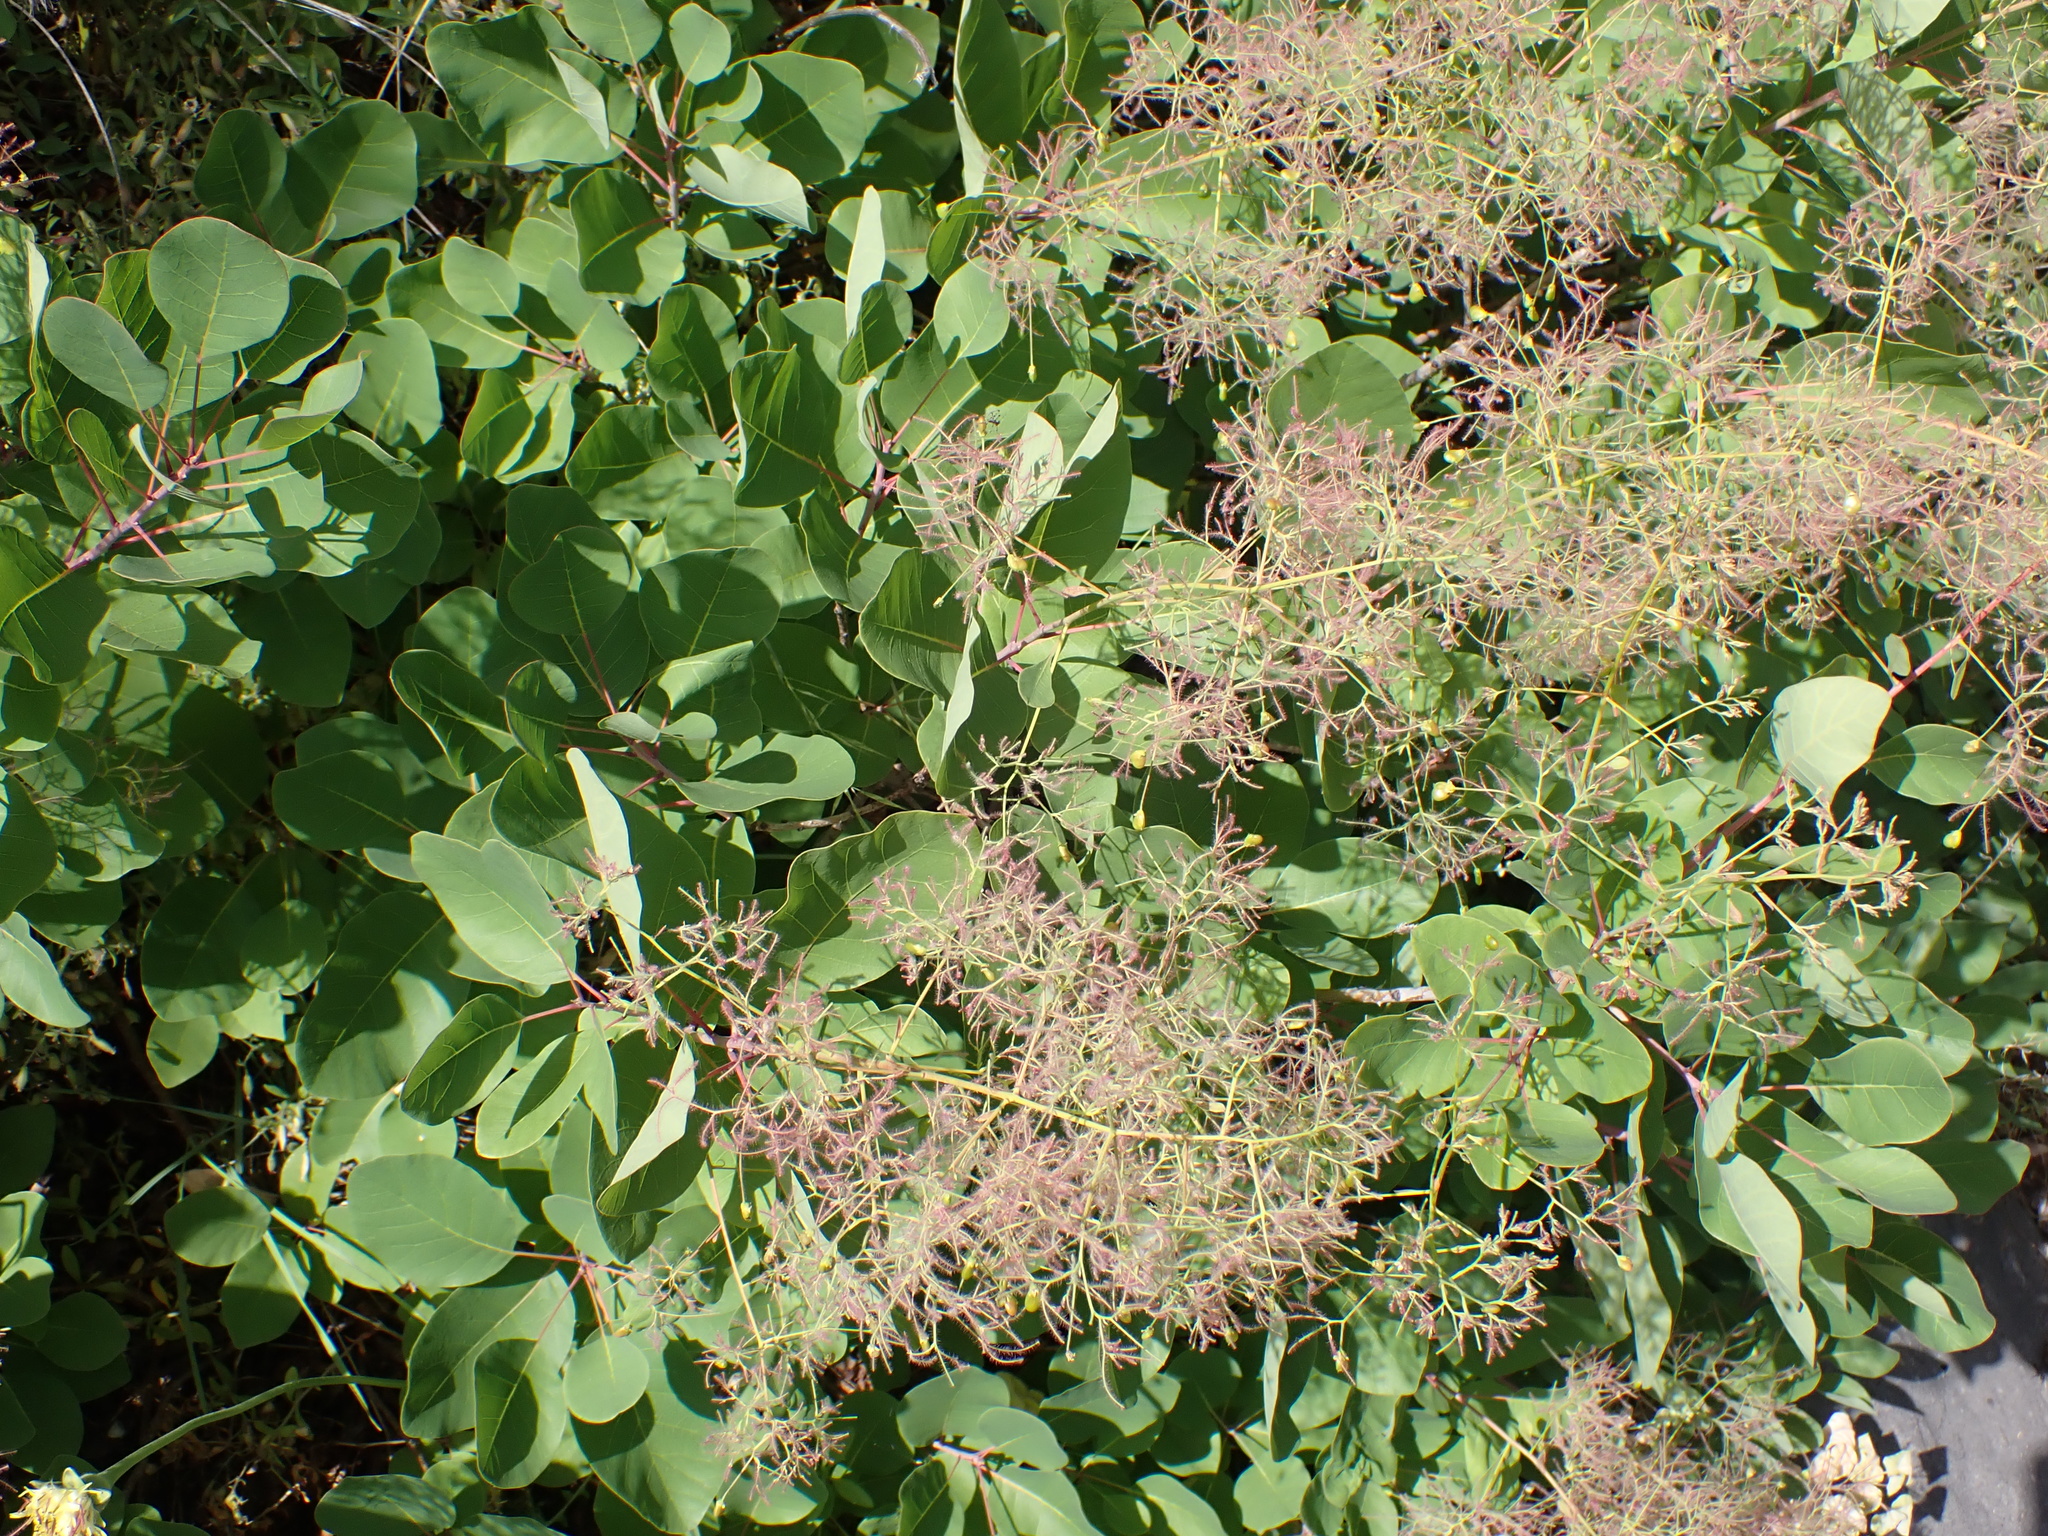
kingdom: Plantae
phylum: Tracheophyta
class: Magnoliopsida
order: Sapindales
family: Anacardiaceae
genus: Cotinus
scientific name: Cotinus coggygria
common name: Smoke-tree
